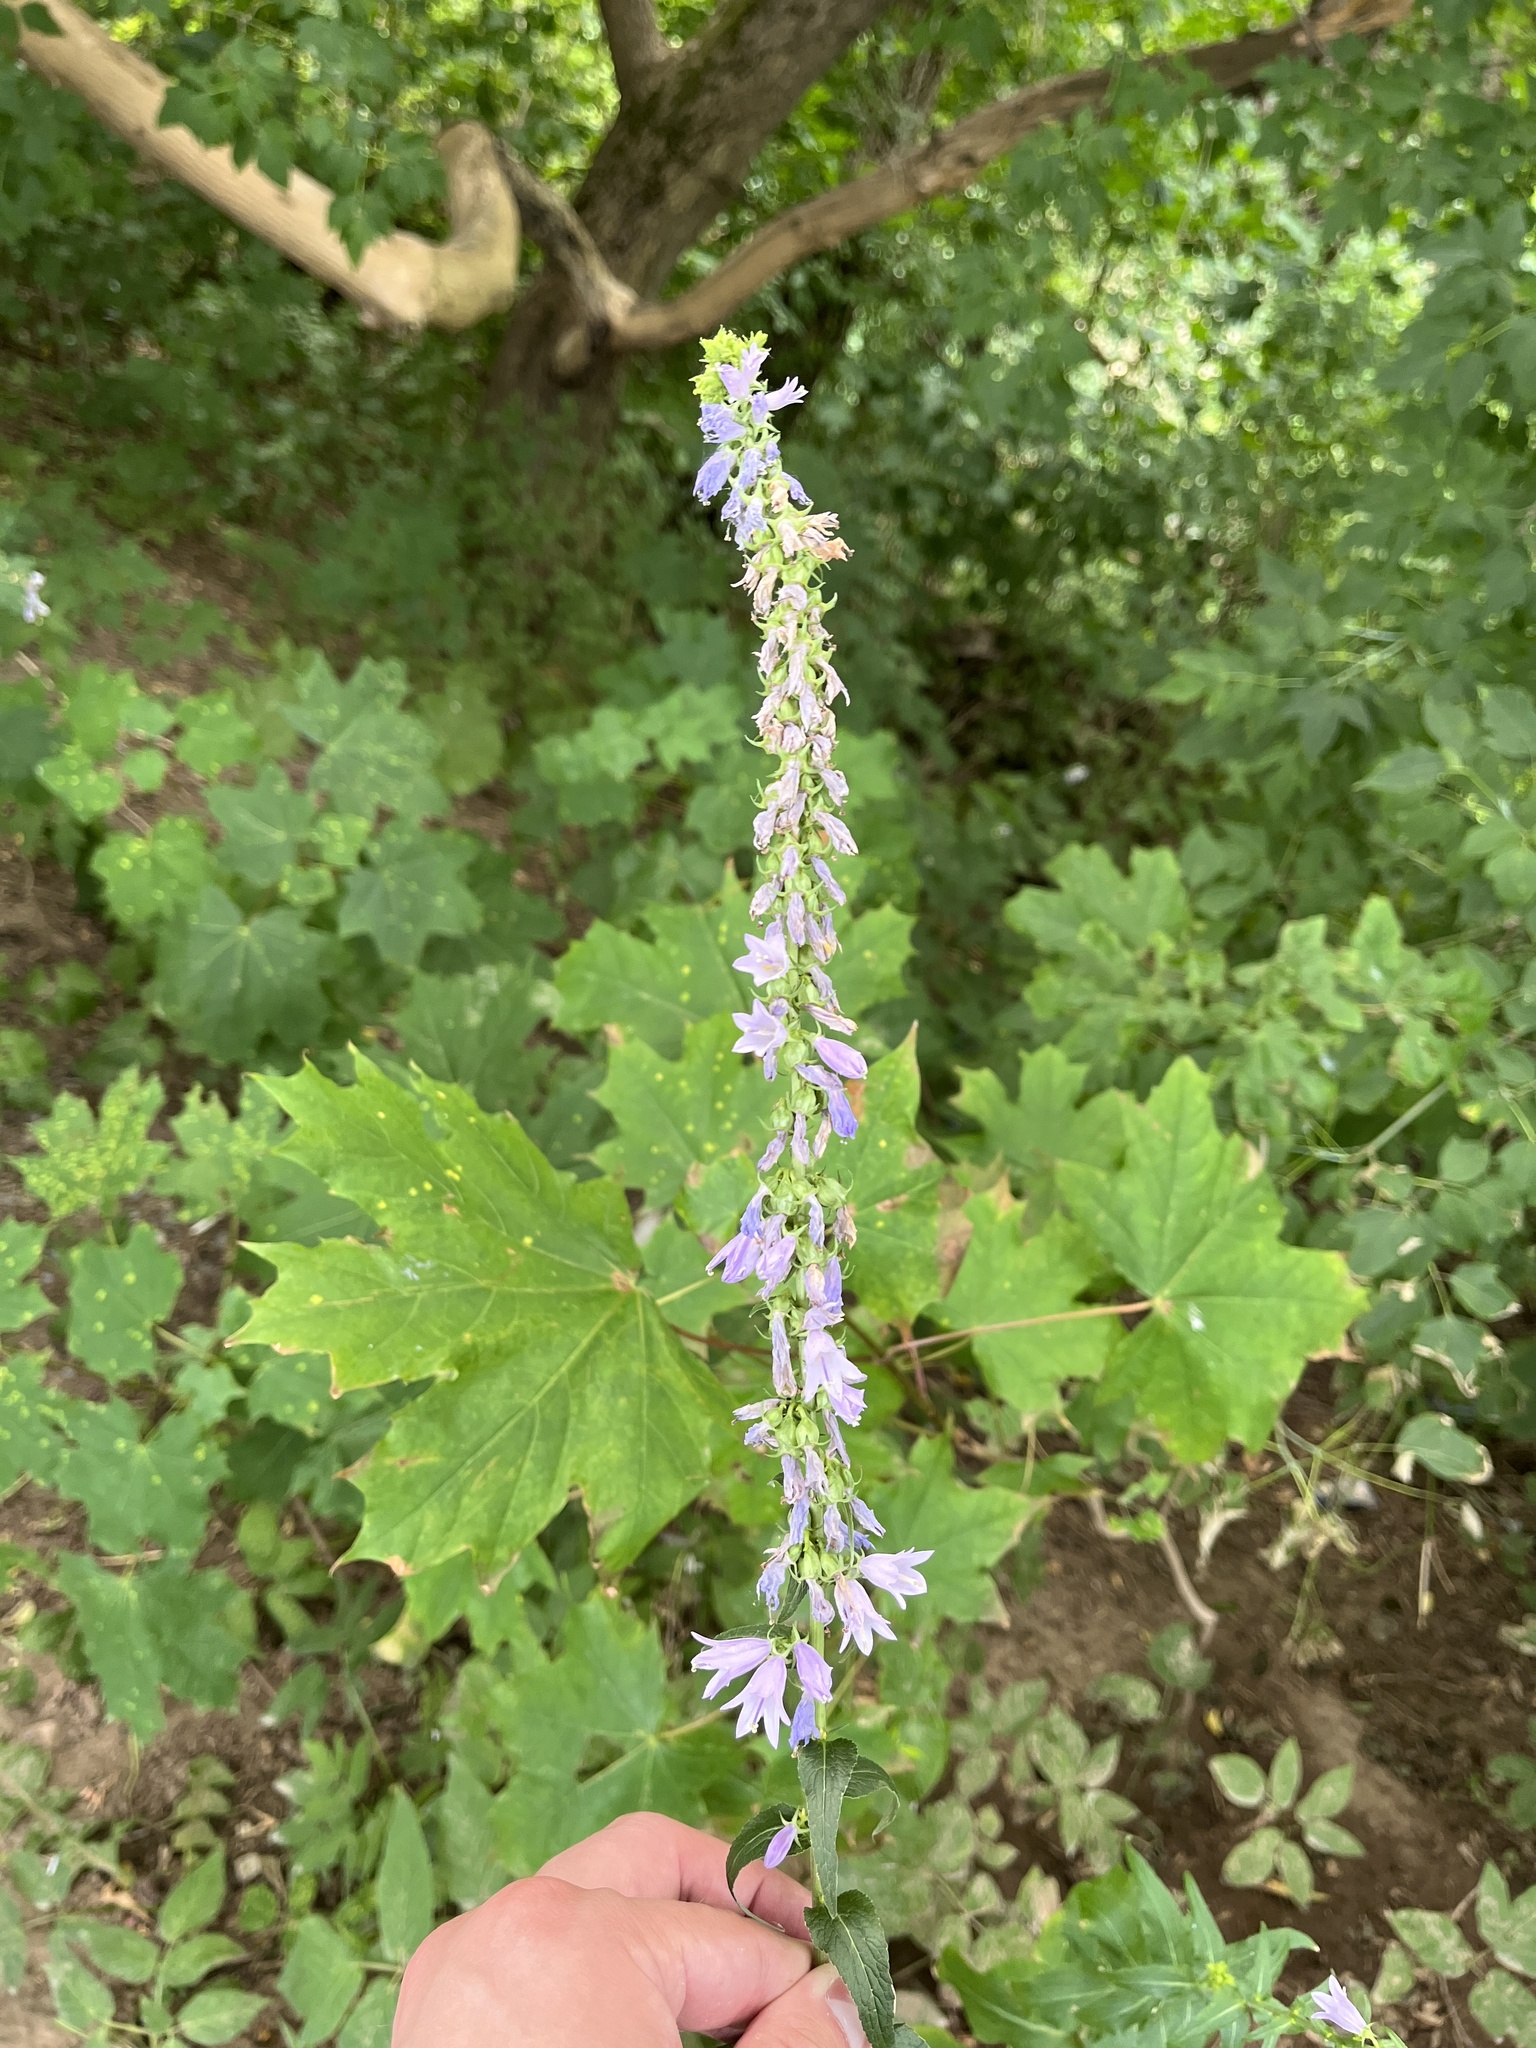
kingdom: Plantae
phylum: Tracheophyta
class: Magnoliopsida
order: Asterales
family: Campanulaceae
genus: Campanula
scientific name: Campanula bononiensis
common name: Pale bellflower
